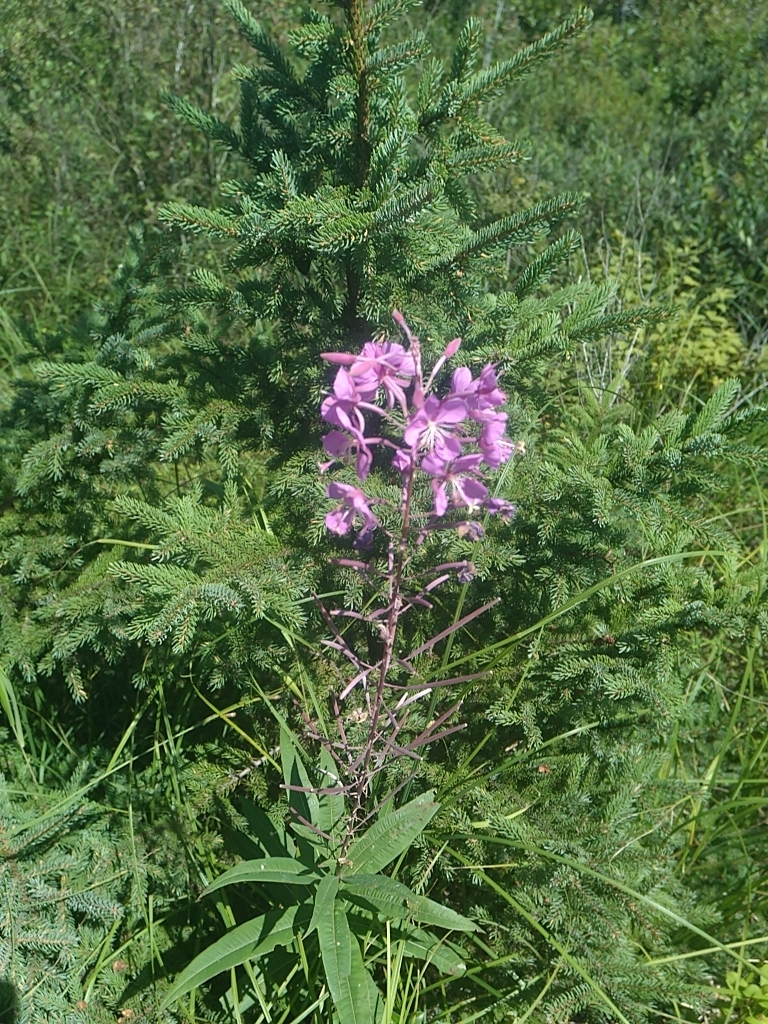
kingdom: Plantae
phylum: Tracheophyta
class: Magnoliopsida
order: Myrtales
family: Onagraceae
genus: Chamaenerion
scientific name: Chamaenerion angustifolium
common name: Fireweed
